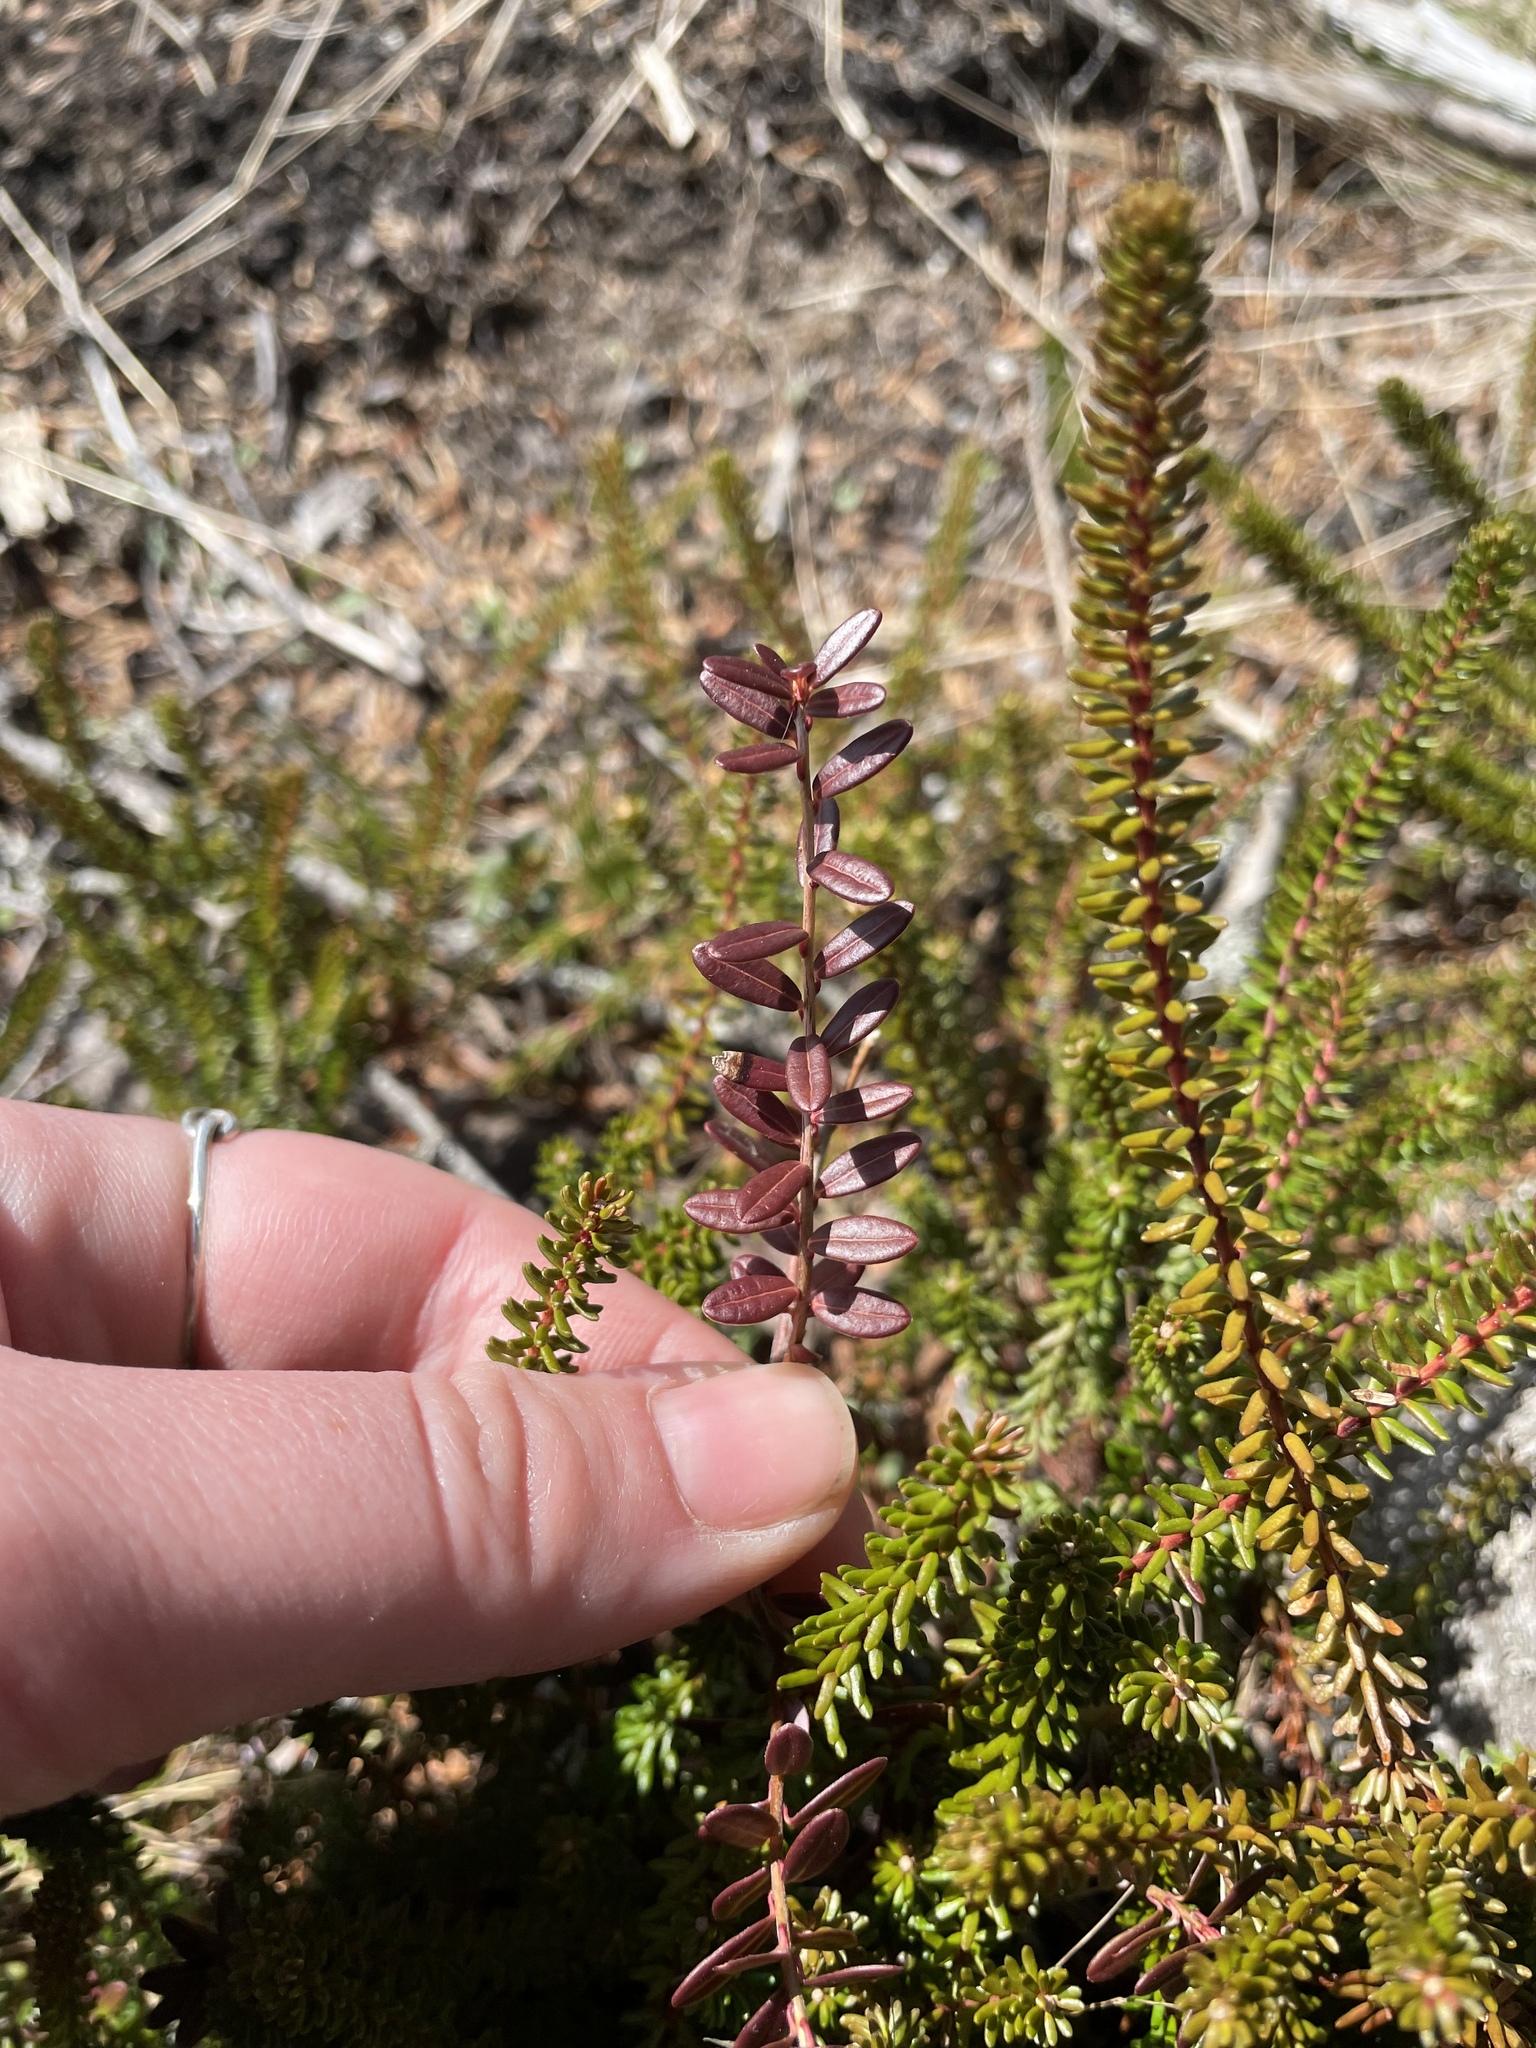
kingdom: Plantae
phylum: Tracheophyta
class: Magnoliopsida
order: Ericales
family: Ericaceae
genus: Vaccinium
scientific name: Vaccinium macrocarpon
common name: American cranberry
